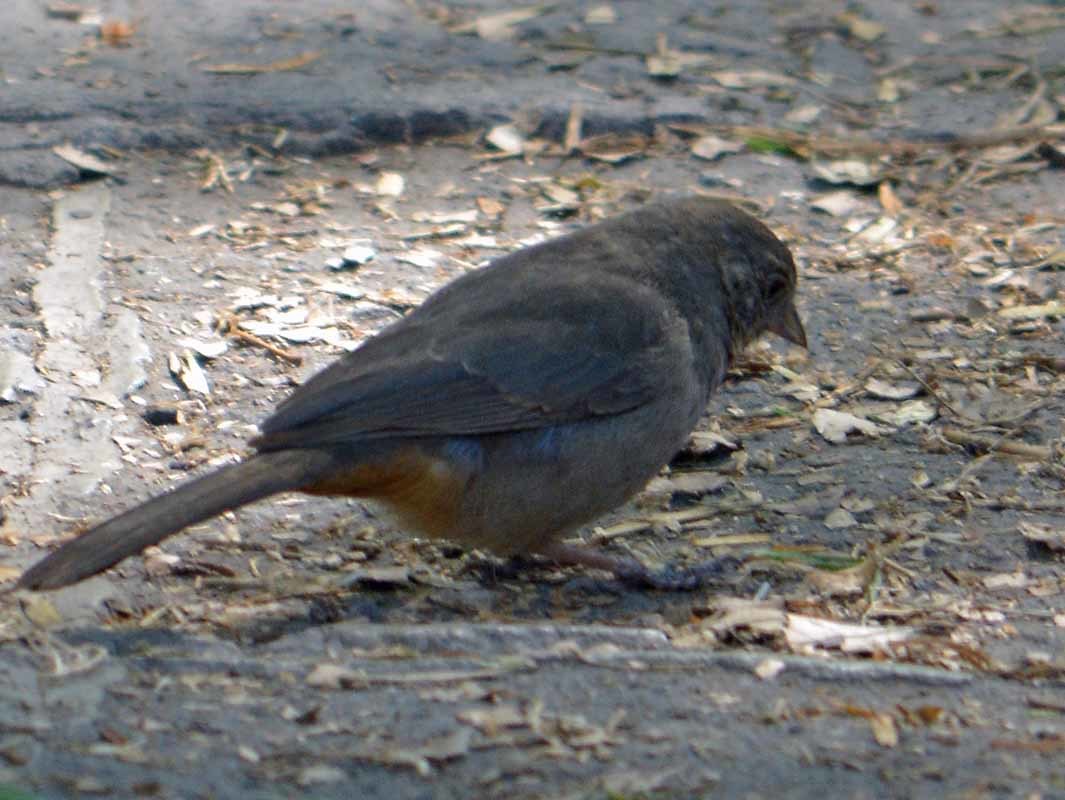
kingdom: Animalia
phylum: Chordata
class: Aves
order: Passeriformes
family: Passerellidae
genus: Melozone
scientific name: Melozone fusca
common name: Canyon towhee
